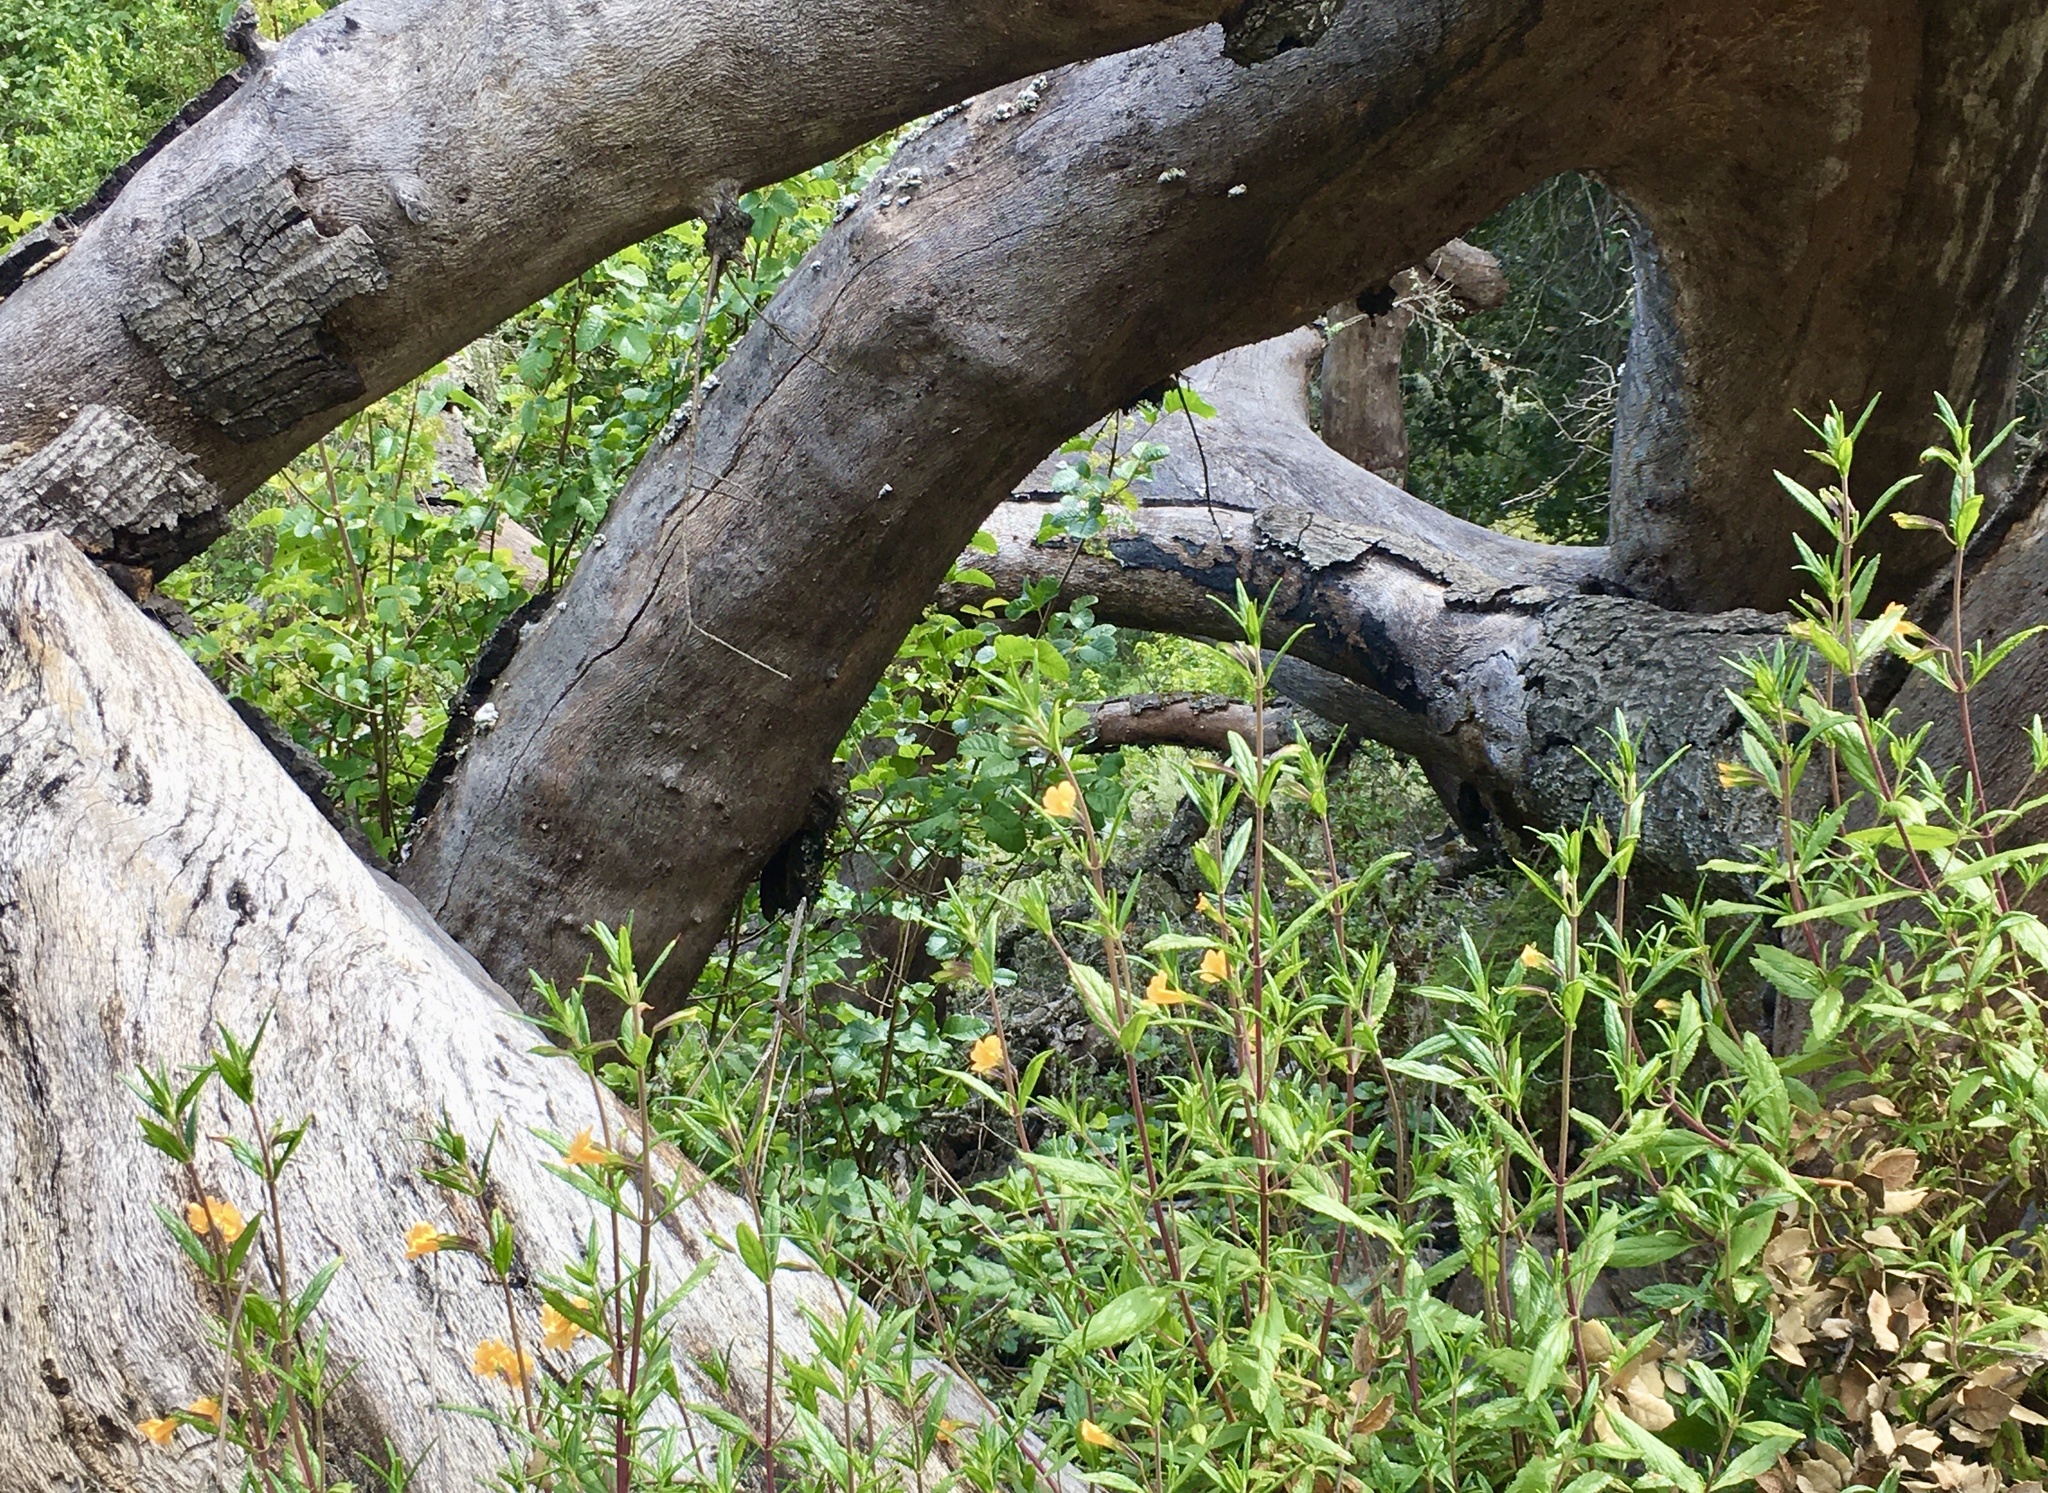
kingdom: Plantae
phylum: Tracheophyta
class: Magnoliopsida
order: Lamiales
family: Phrymaceae
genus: Diplacus
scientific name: Diplacus aurantiacus
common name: Bush monkey-flower
